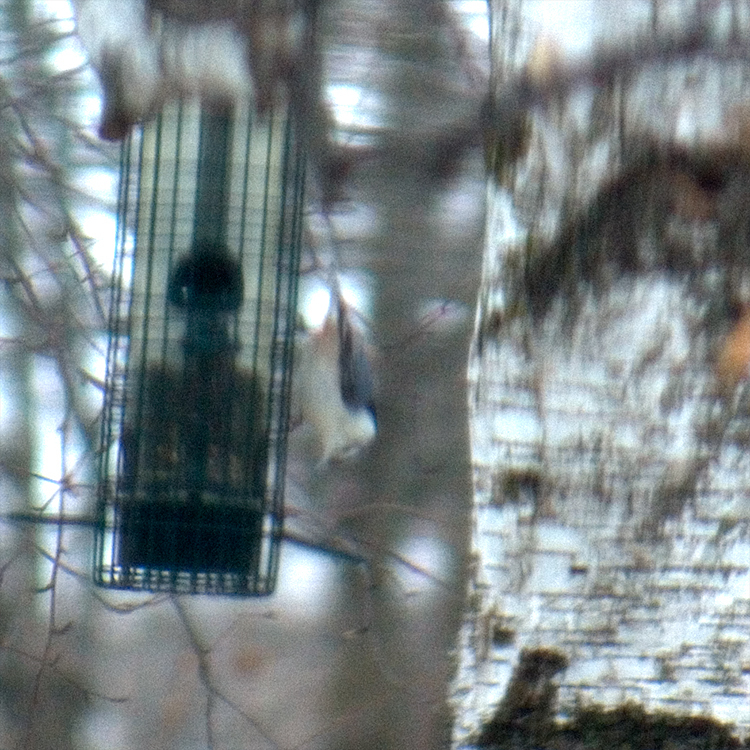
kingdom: Animalia
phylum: Chordata
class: Aves
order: Passeriformes
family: Sittidae
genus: Sitta
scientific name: Sitta carolinensis
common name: White-breasted nuthatch
